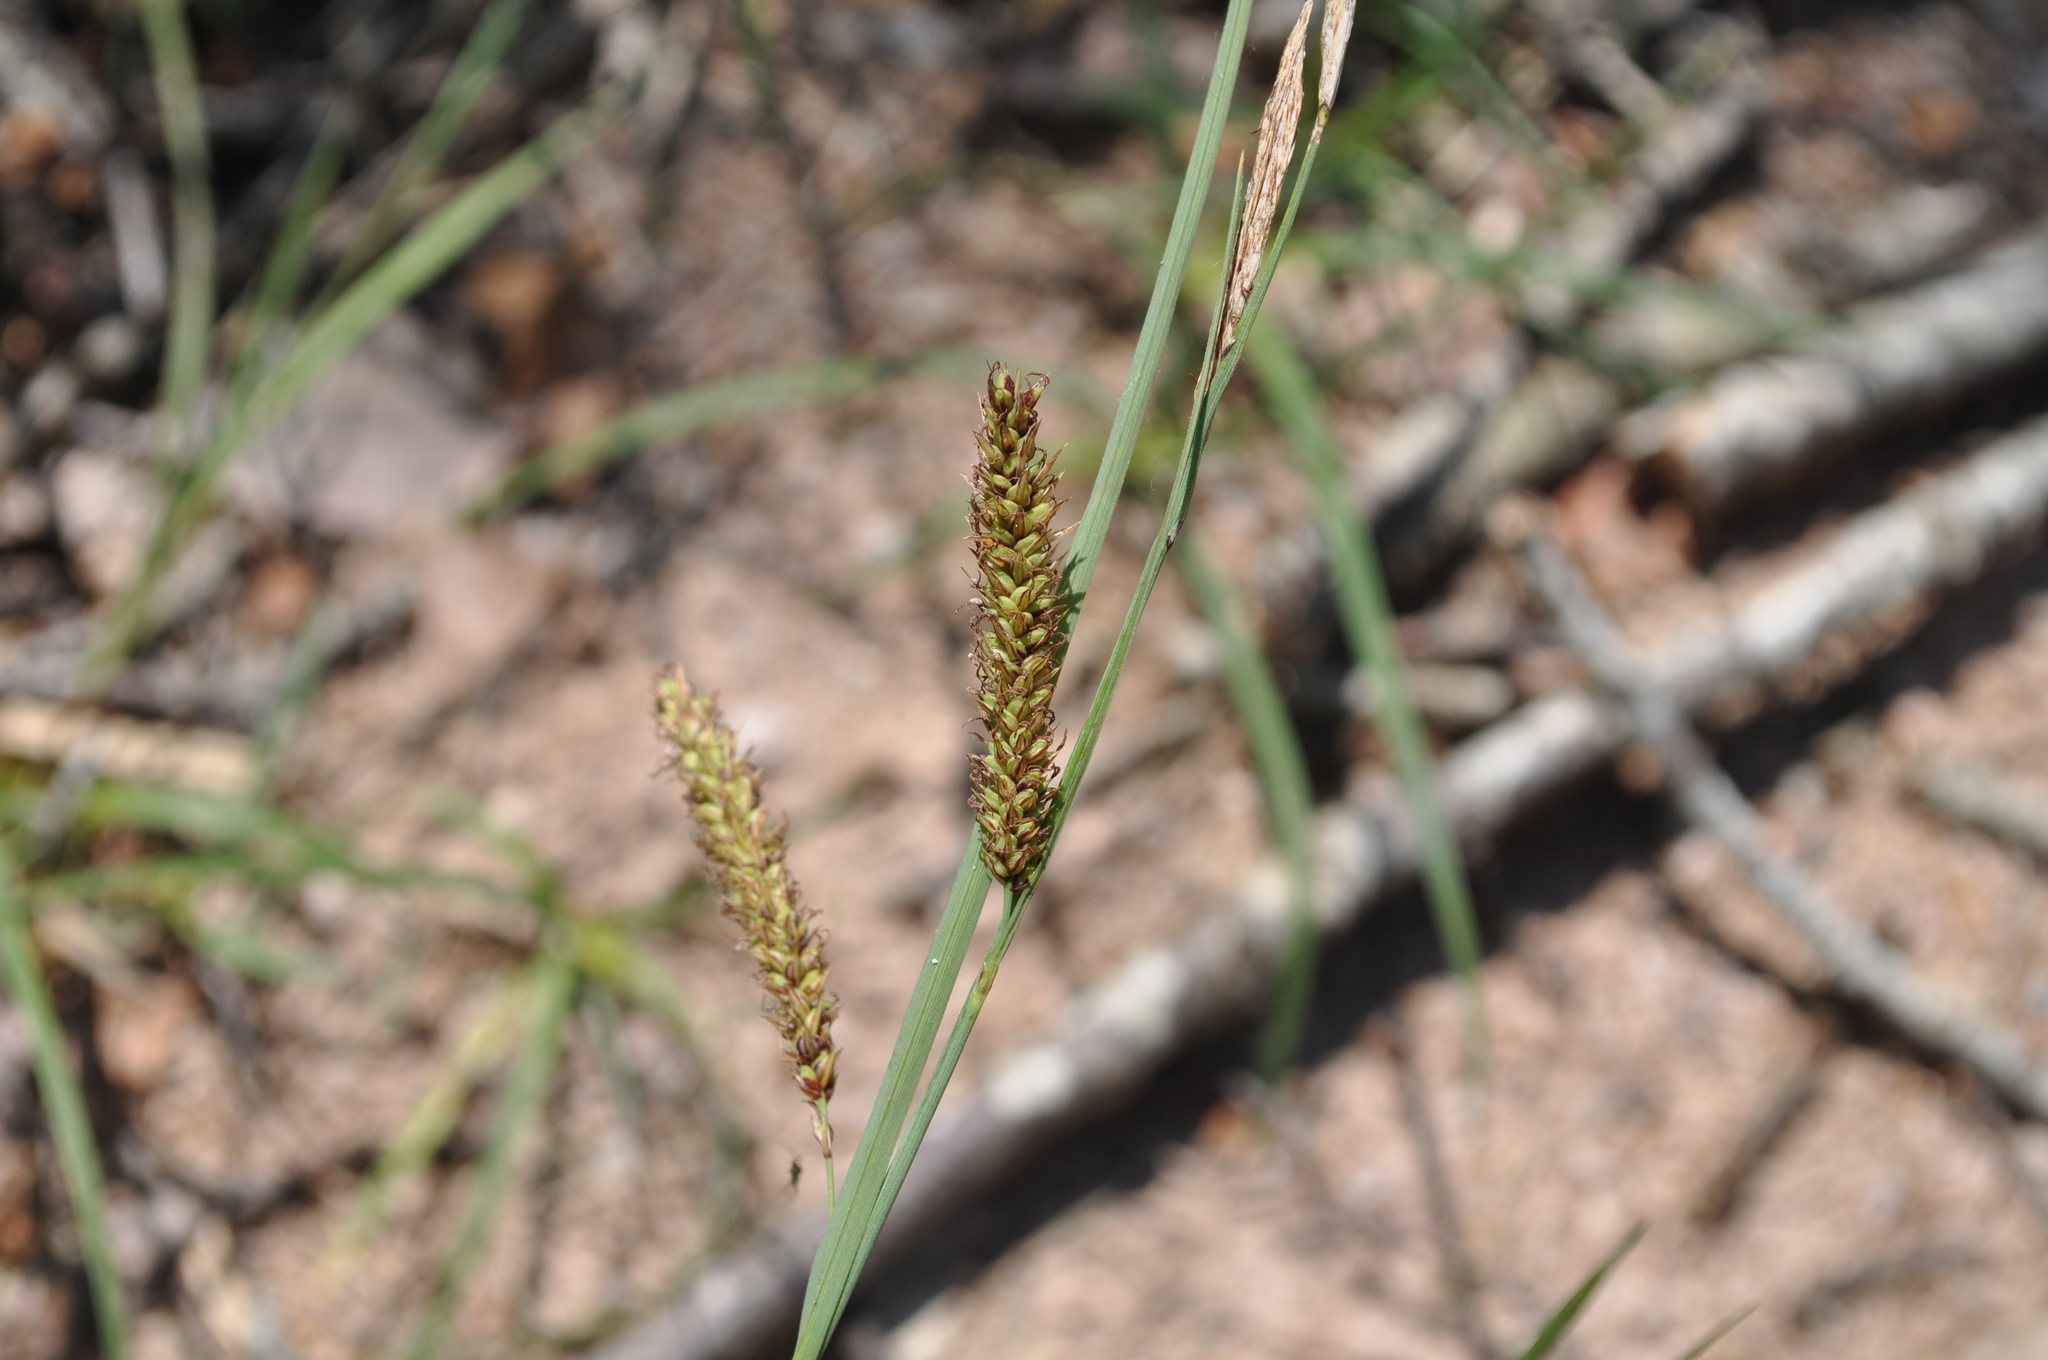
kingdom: Plantae
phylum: Tracheophyta
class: Liliopsida
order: Poales
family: Cyperaceae
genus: Carex
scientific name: Carex flacca
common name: Glaucous sedge
